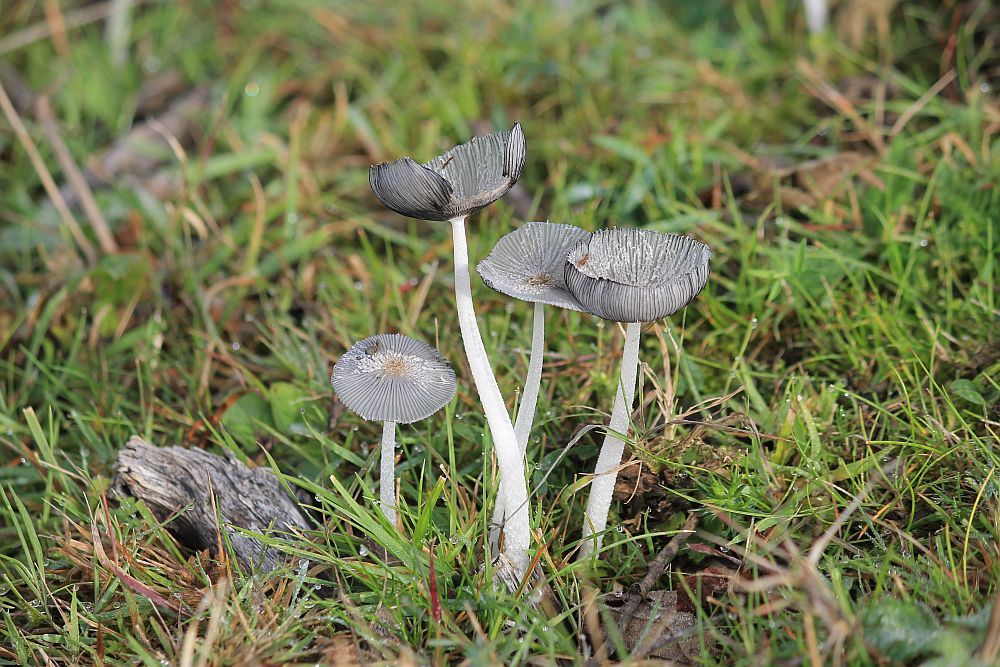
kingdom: Fungi
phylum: Basidiomycota
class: Agaricomycetes
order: Agaricales
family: Psathyrellaceae
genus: Coprinopsis
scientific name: Coprinopsis lagopus
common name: Hare'sfoot inkcap
